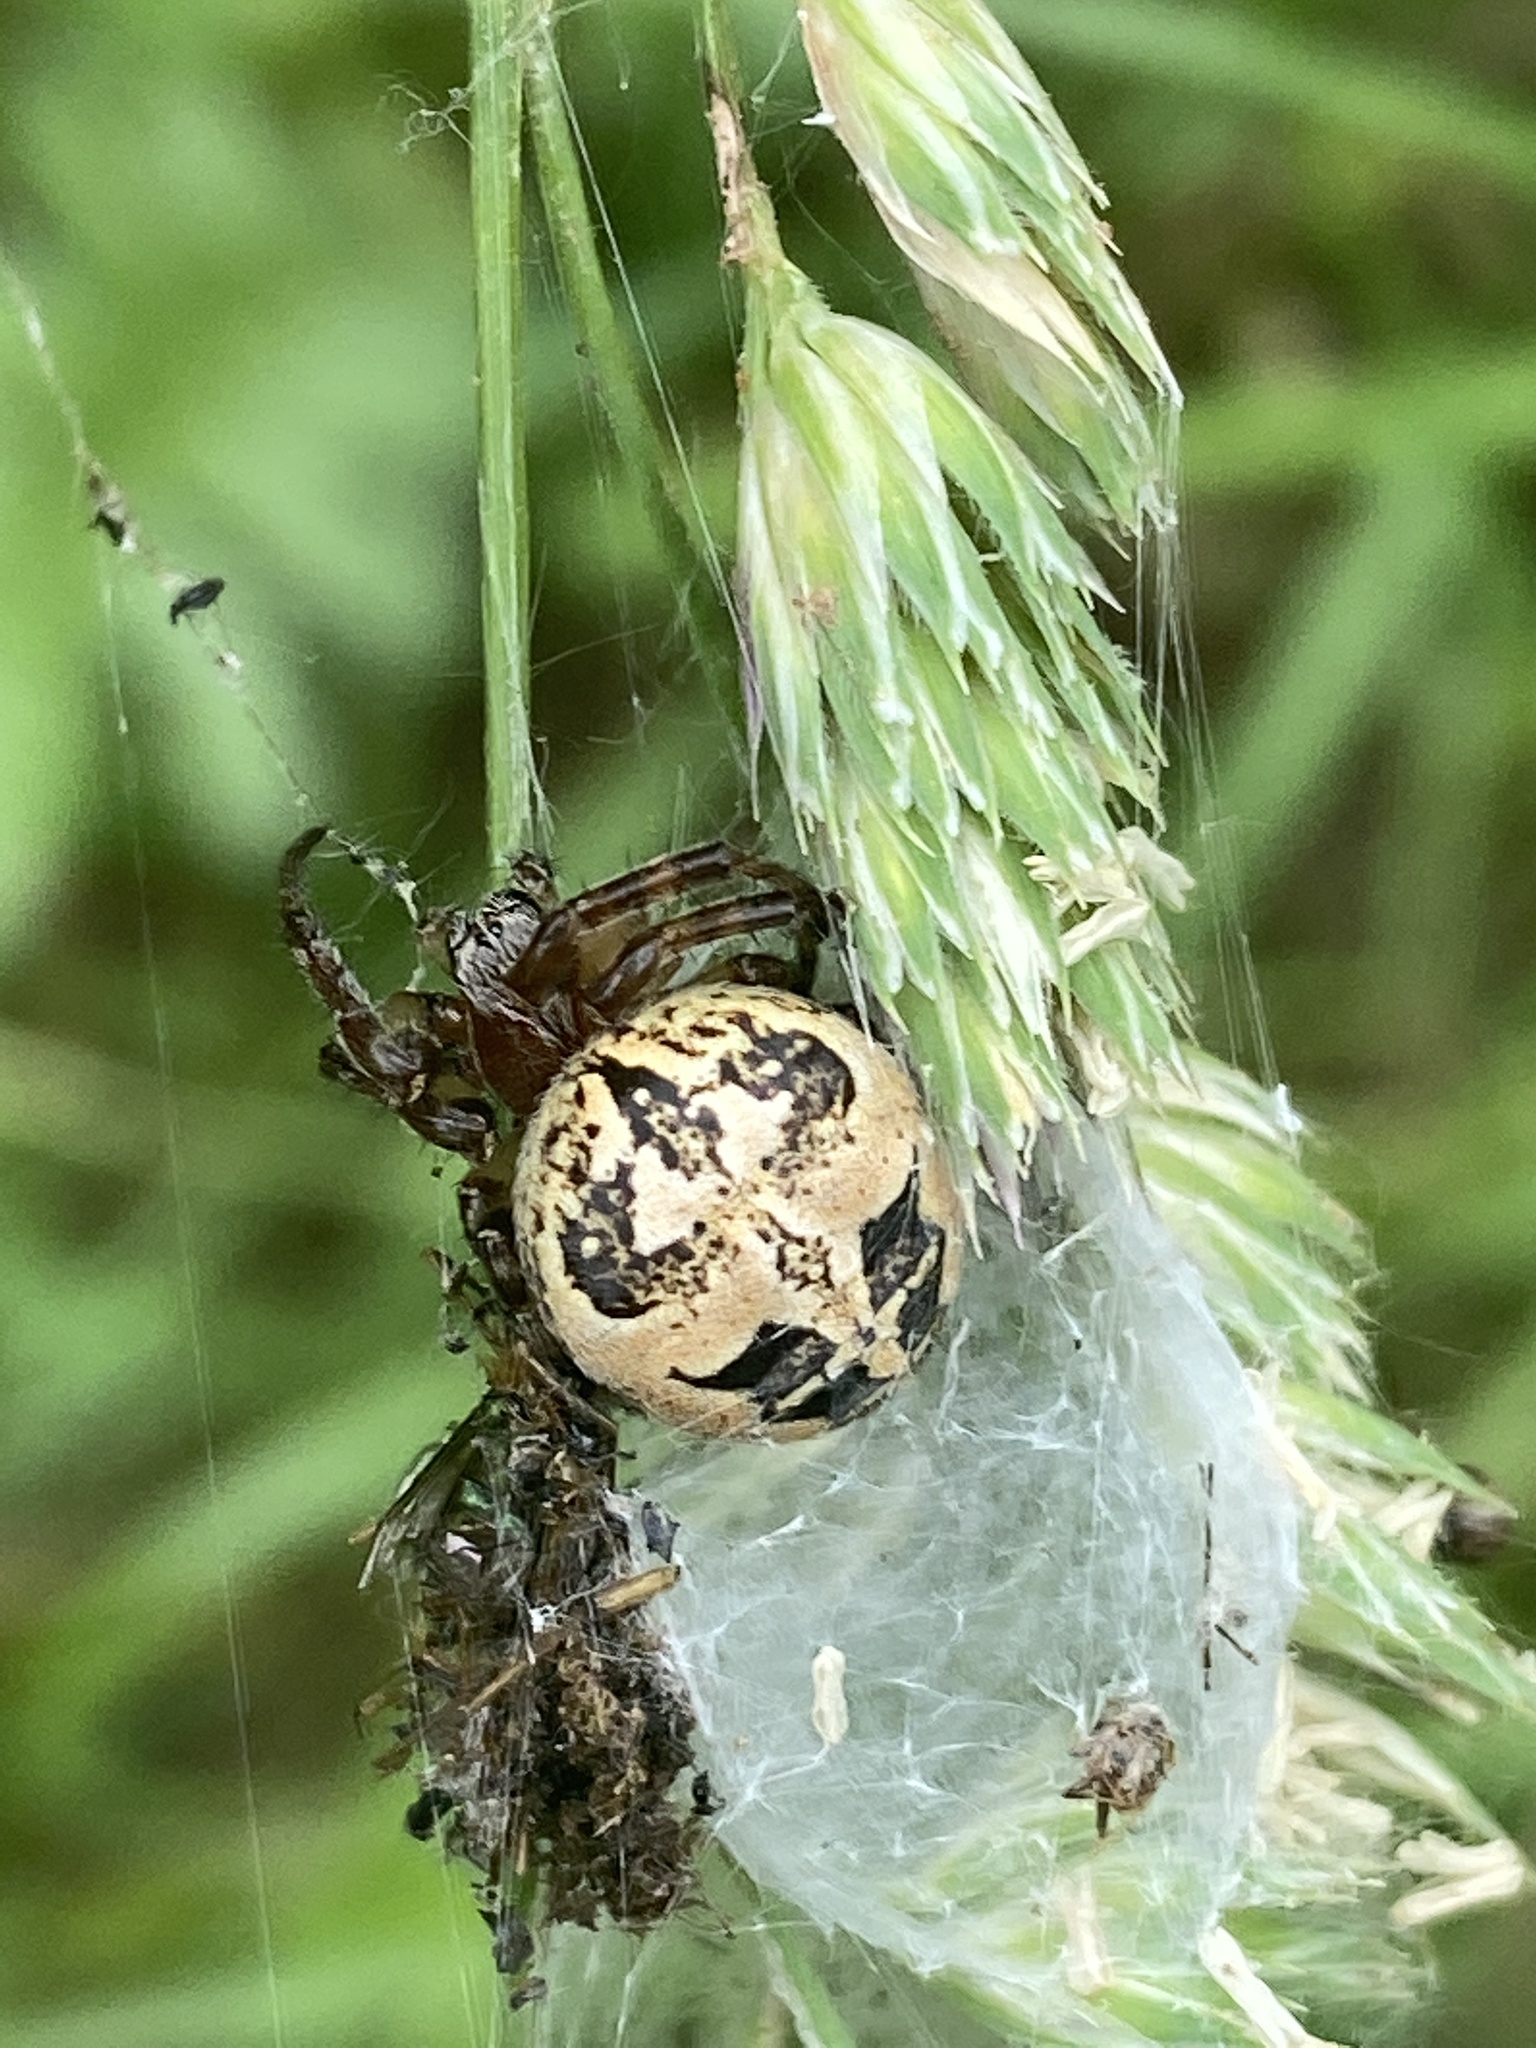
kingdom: Animalia
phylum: Arthropoda
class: Arachnida
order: Araneae
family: Araneidae
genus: Larinioides
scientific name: Larinioides cornutus
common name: Furrow orbweaver
